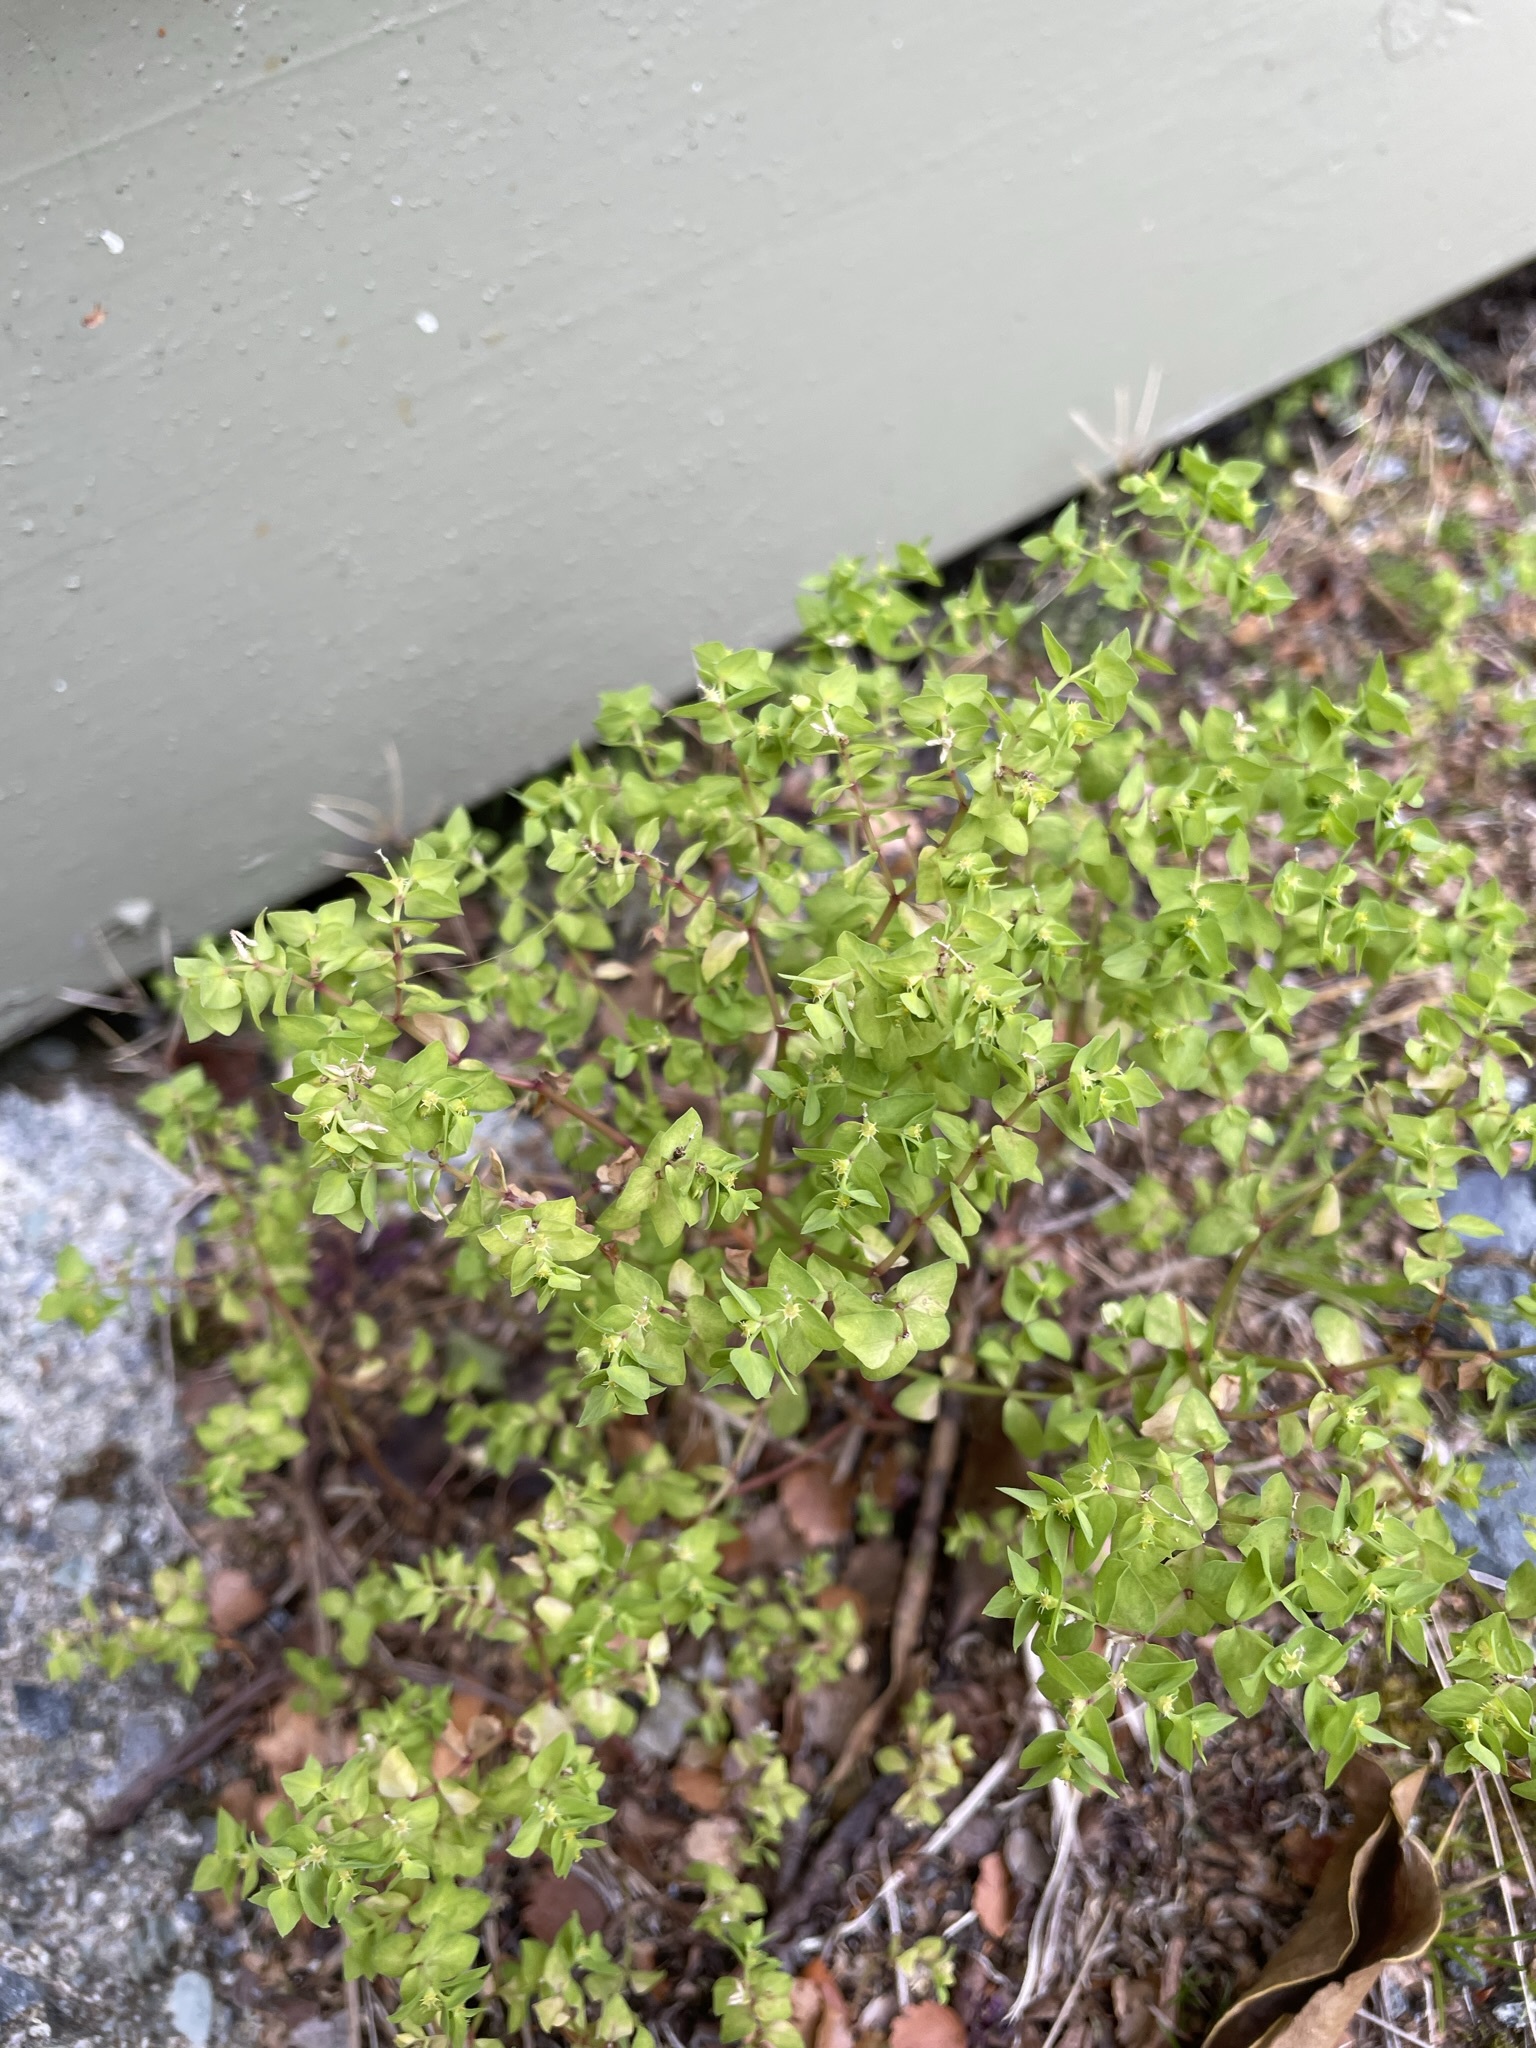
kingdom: Plantae
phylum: Tracheophyta
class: Magnoliopsida
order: Malpighiales
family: Euphorbiaceae
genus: Euphorbia
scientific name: Euphorbia peplus
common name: Petty spurge
